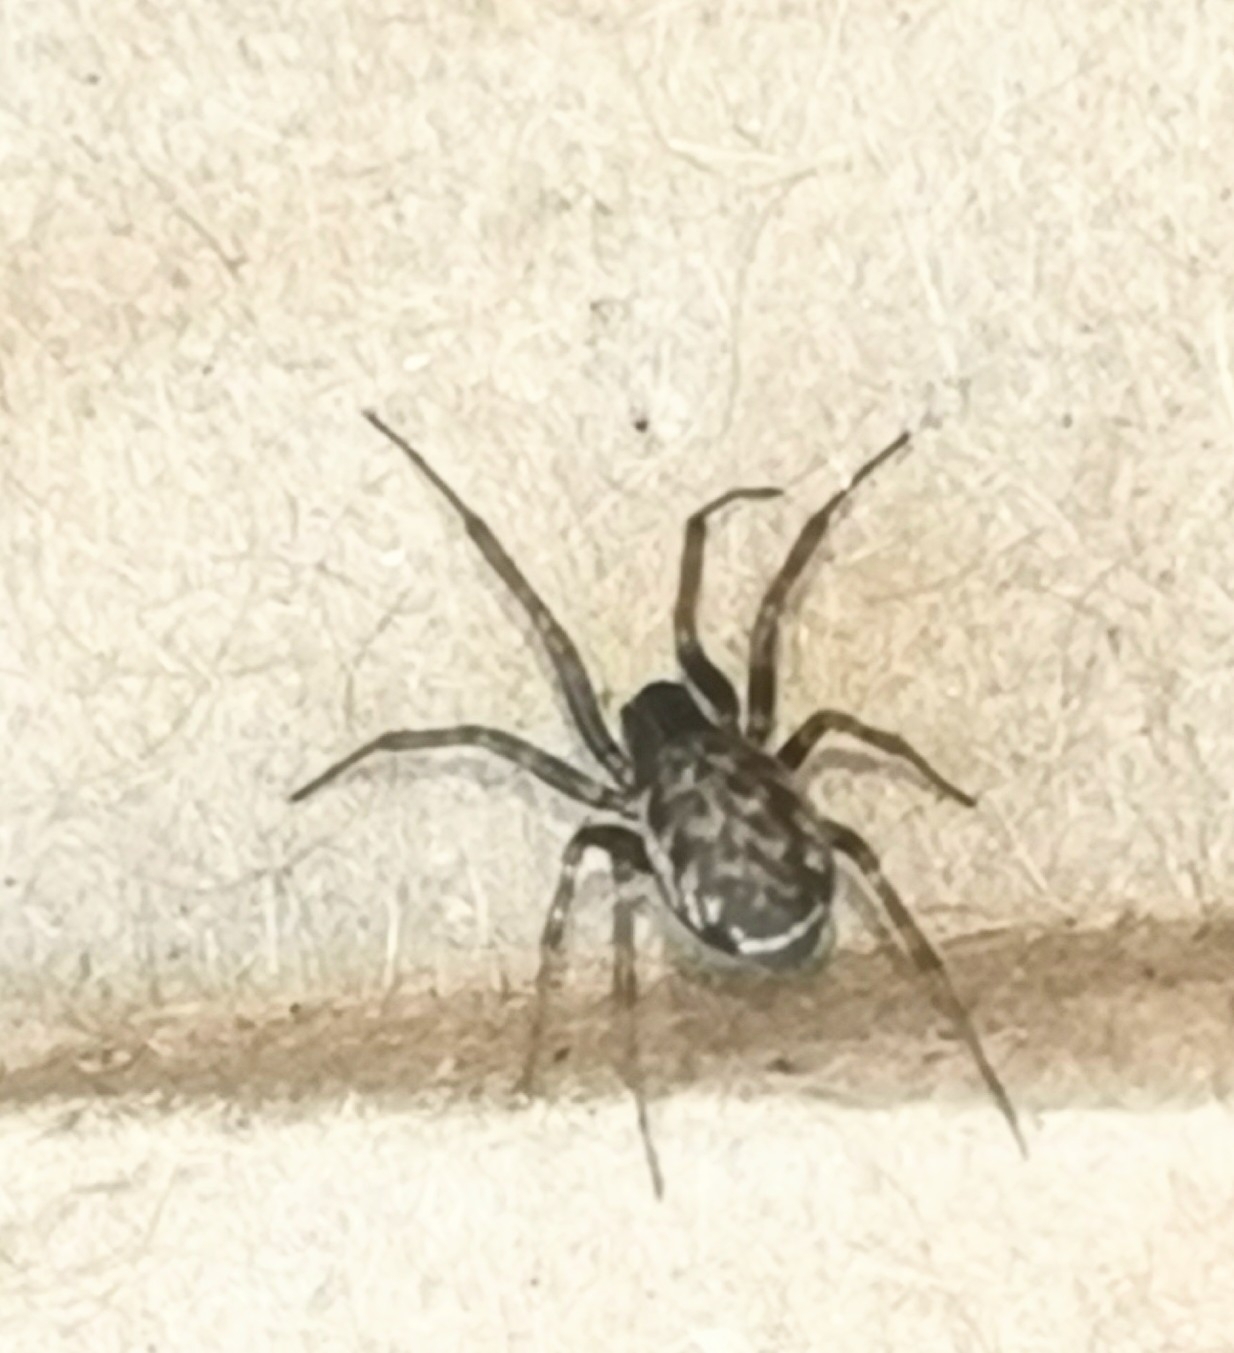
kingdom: Animalia
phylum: Arthropoda
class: Arachnida
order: Araneae
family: Linyphiidae
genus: Neriene
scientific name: Neriene clathrata
